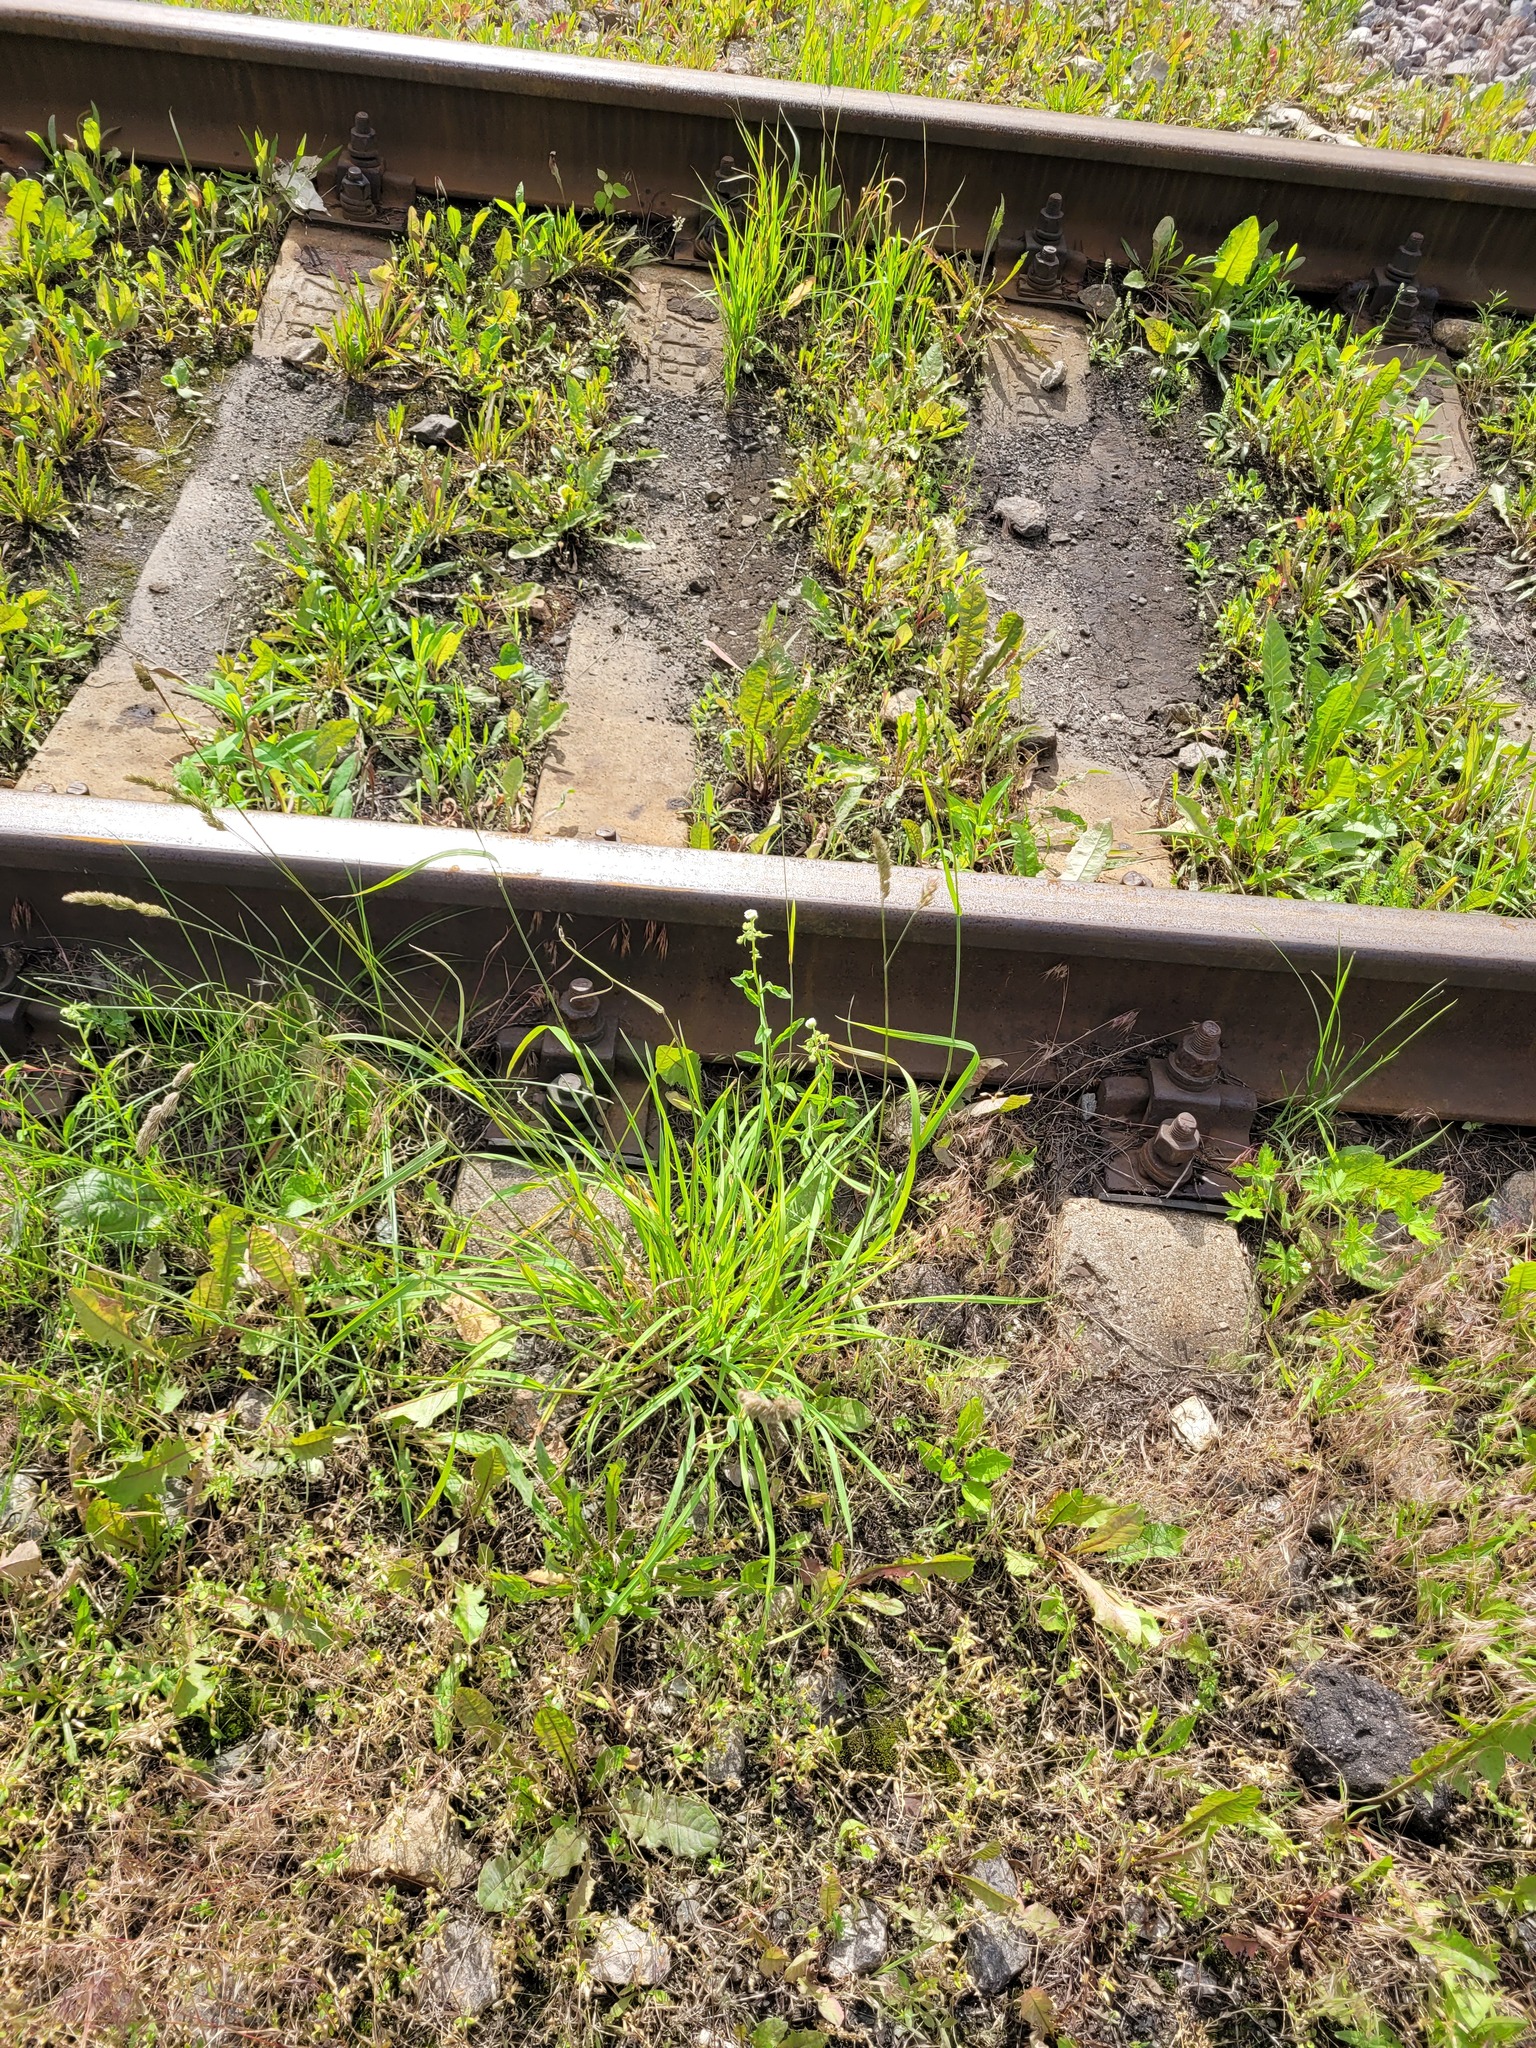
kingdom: Plantae
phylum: Tracheophyta
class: Liliopsida
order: Poales
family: Poaceae
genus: Dactylis
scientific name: Dactylis glomerata
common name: Orchardgrass
